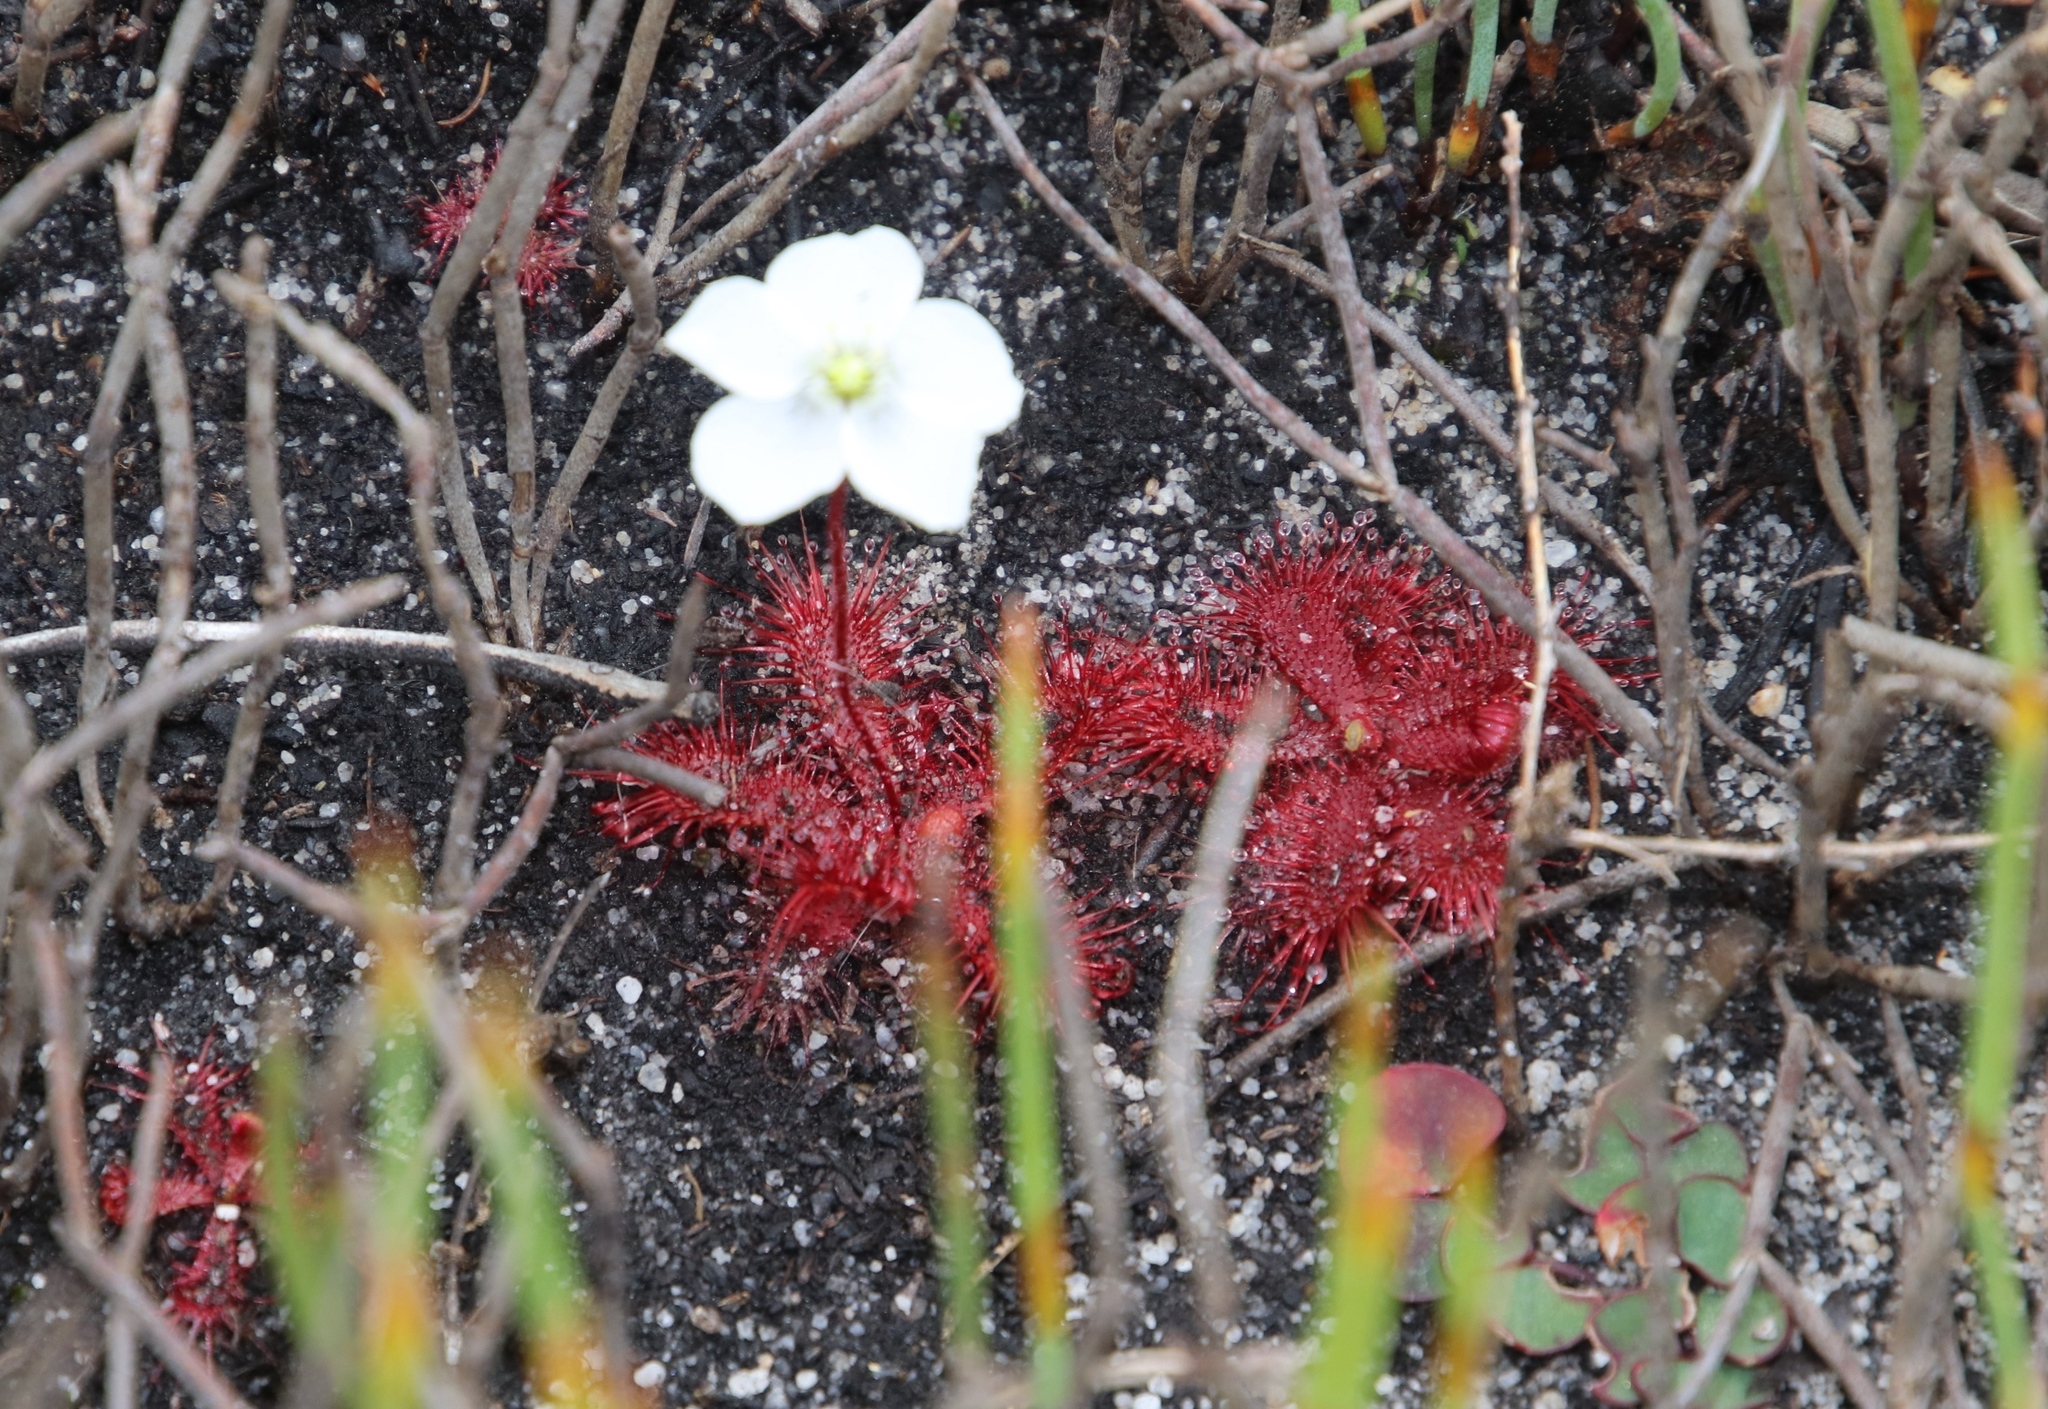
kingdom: Plantae
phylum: Tracheophyta
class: Magnoliopsida
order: Caryophyllales
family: Droseraceae
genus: Drosera
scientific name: Drosera trinervia
